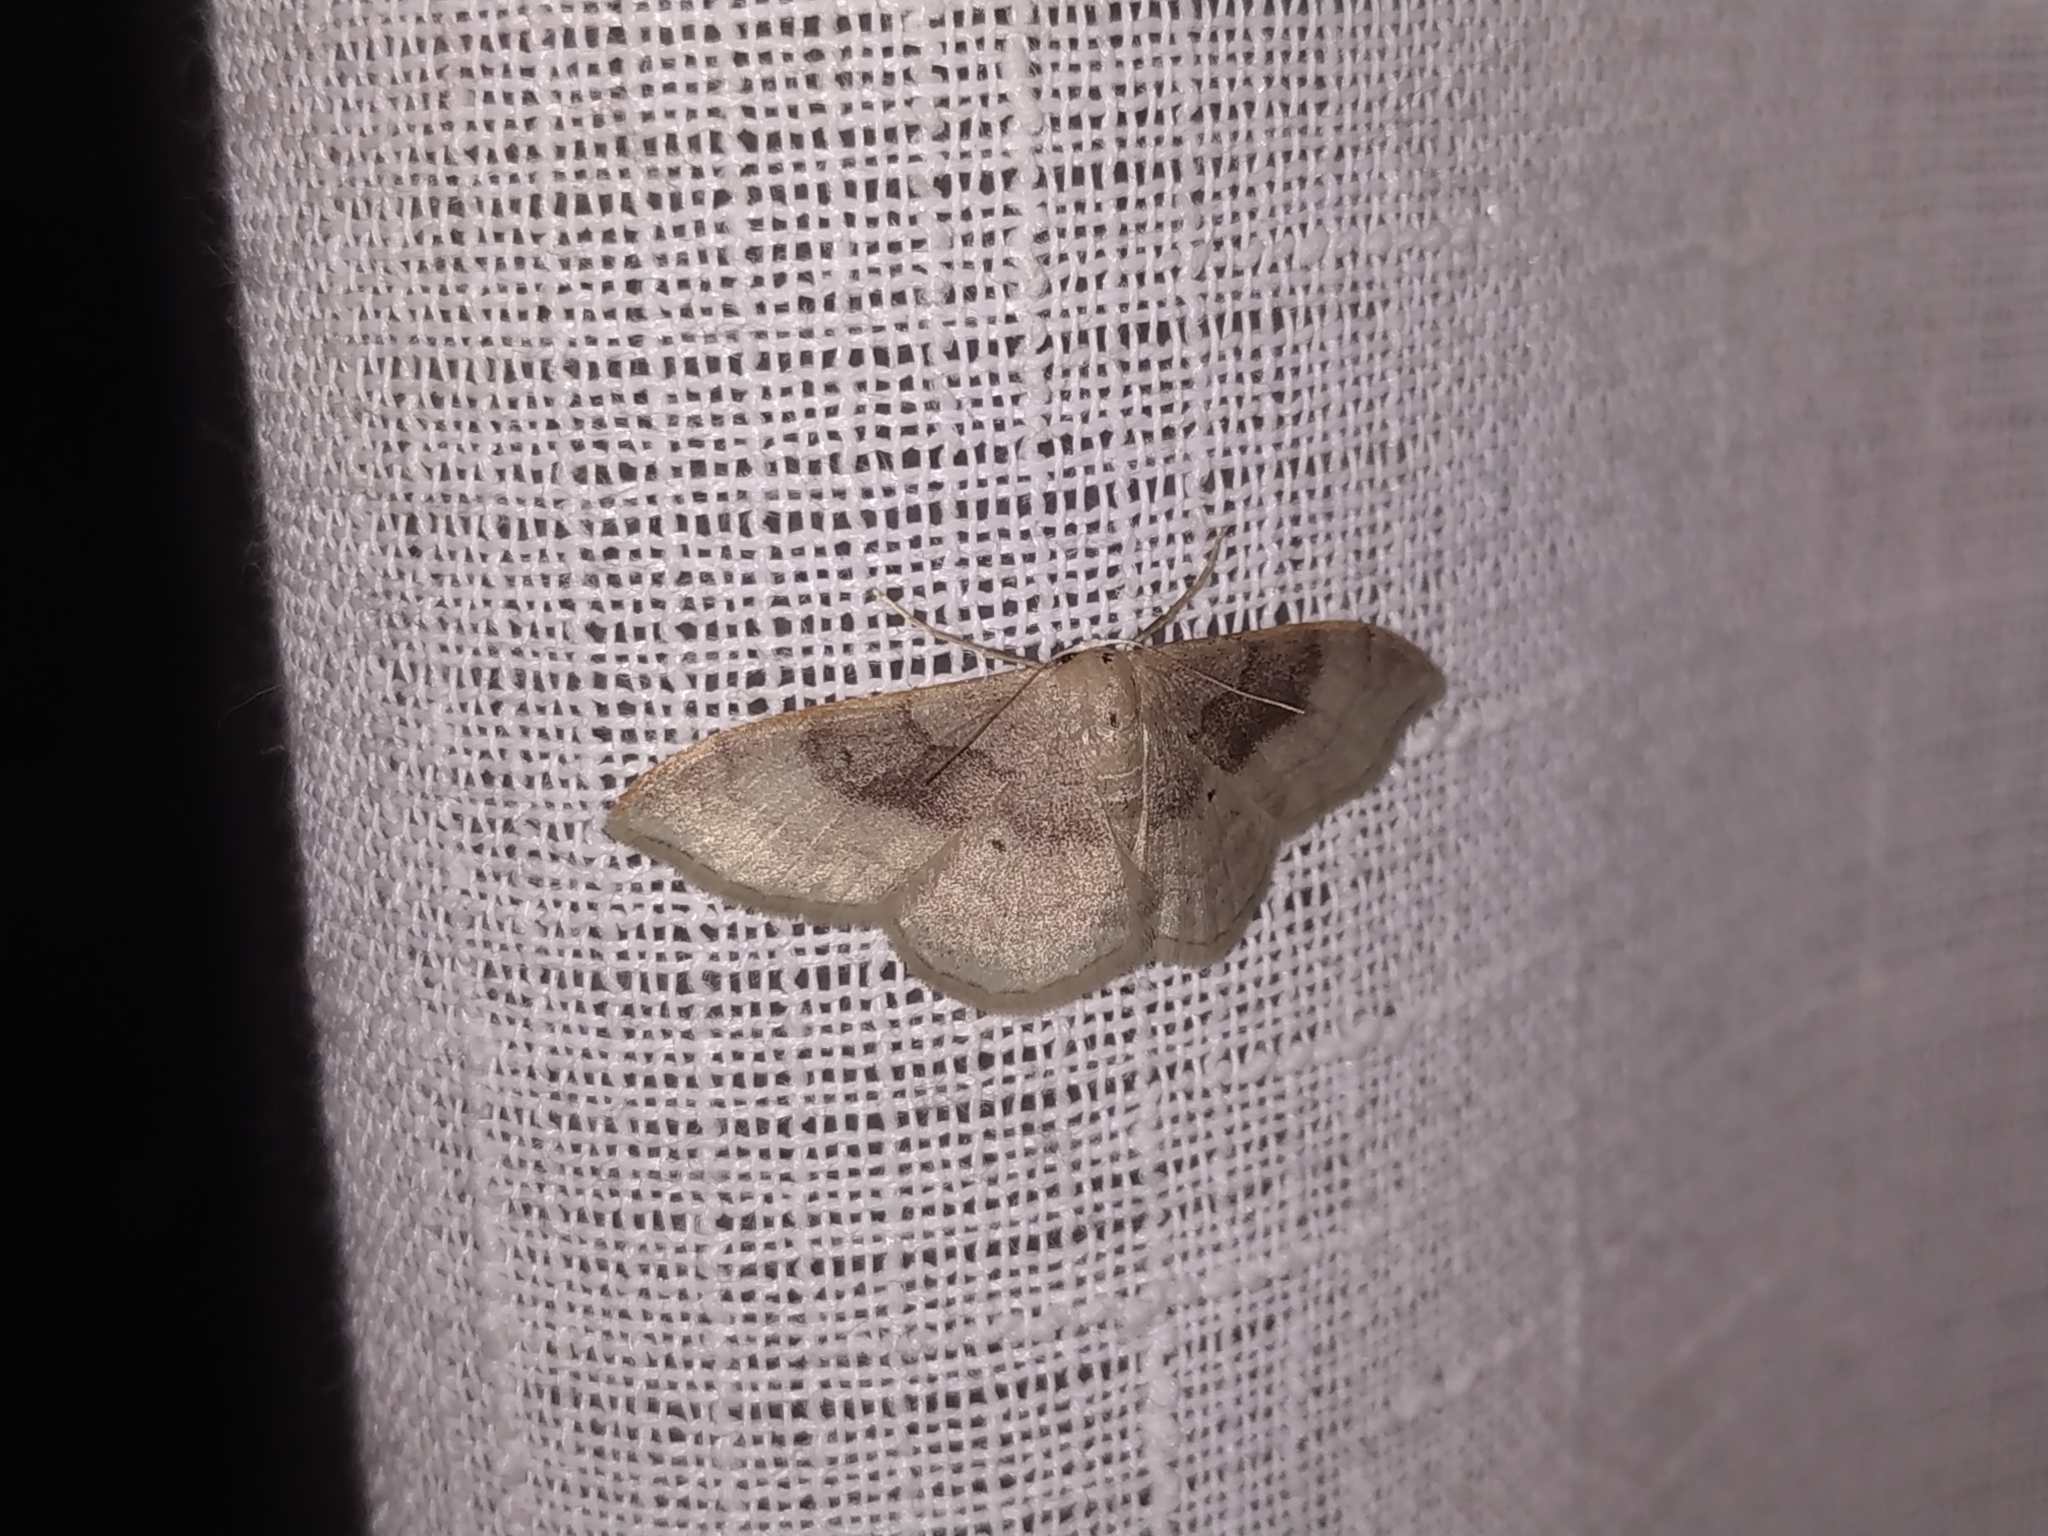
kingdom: Animalia
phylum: Arthropoda
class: Insecta
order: Lepidoptera
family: Geometridae
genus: Idaea
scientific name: Idaea degeneraria
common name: Portland ribbon wave
